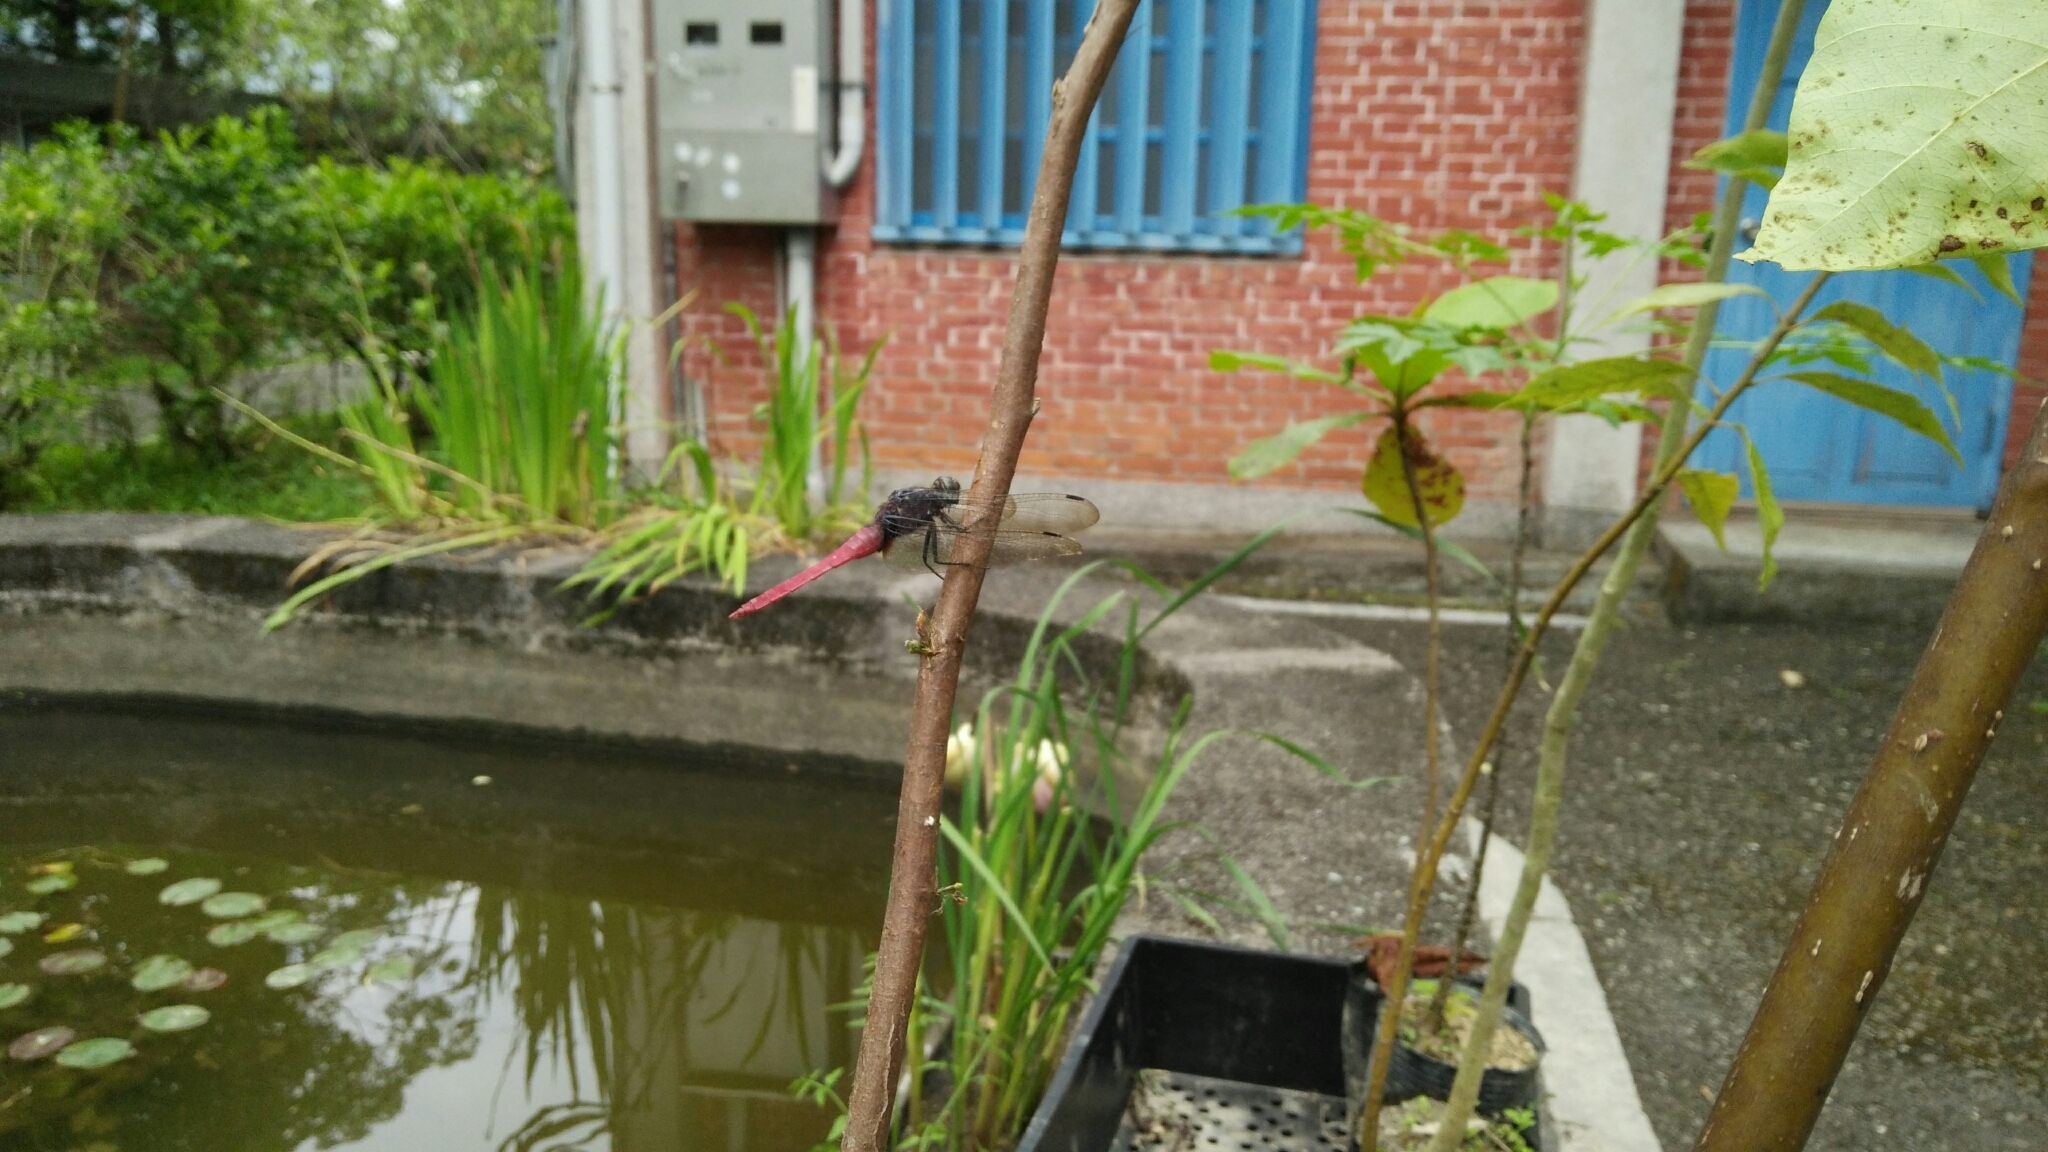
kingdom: Animalia
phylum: Arthropoda
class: Insecta
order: Odonata
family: Libellulidae
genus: Orthetrum
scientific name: Orthetrum pruinosum
